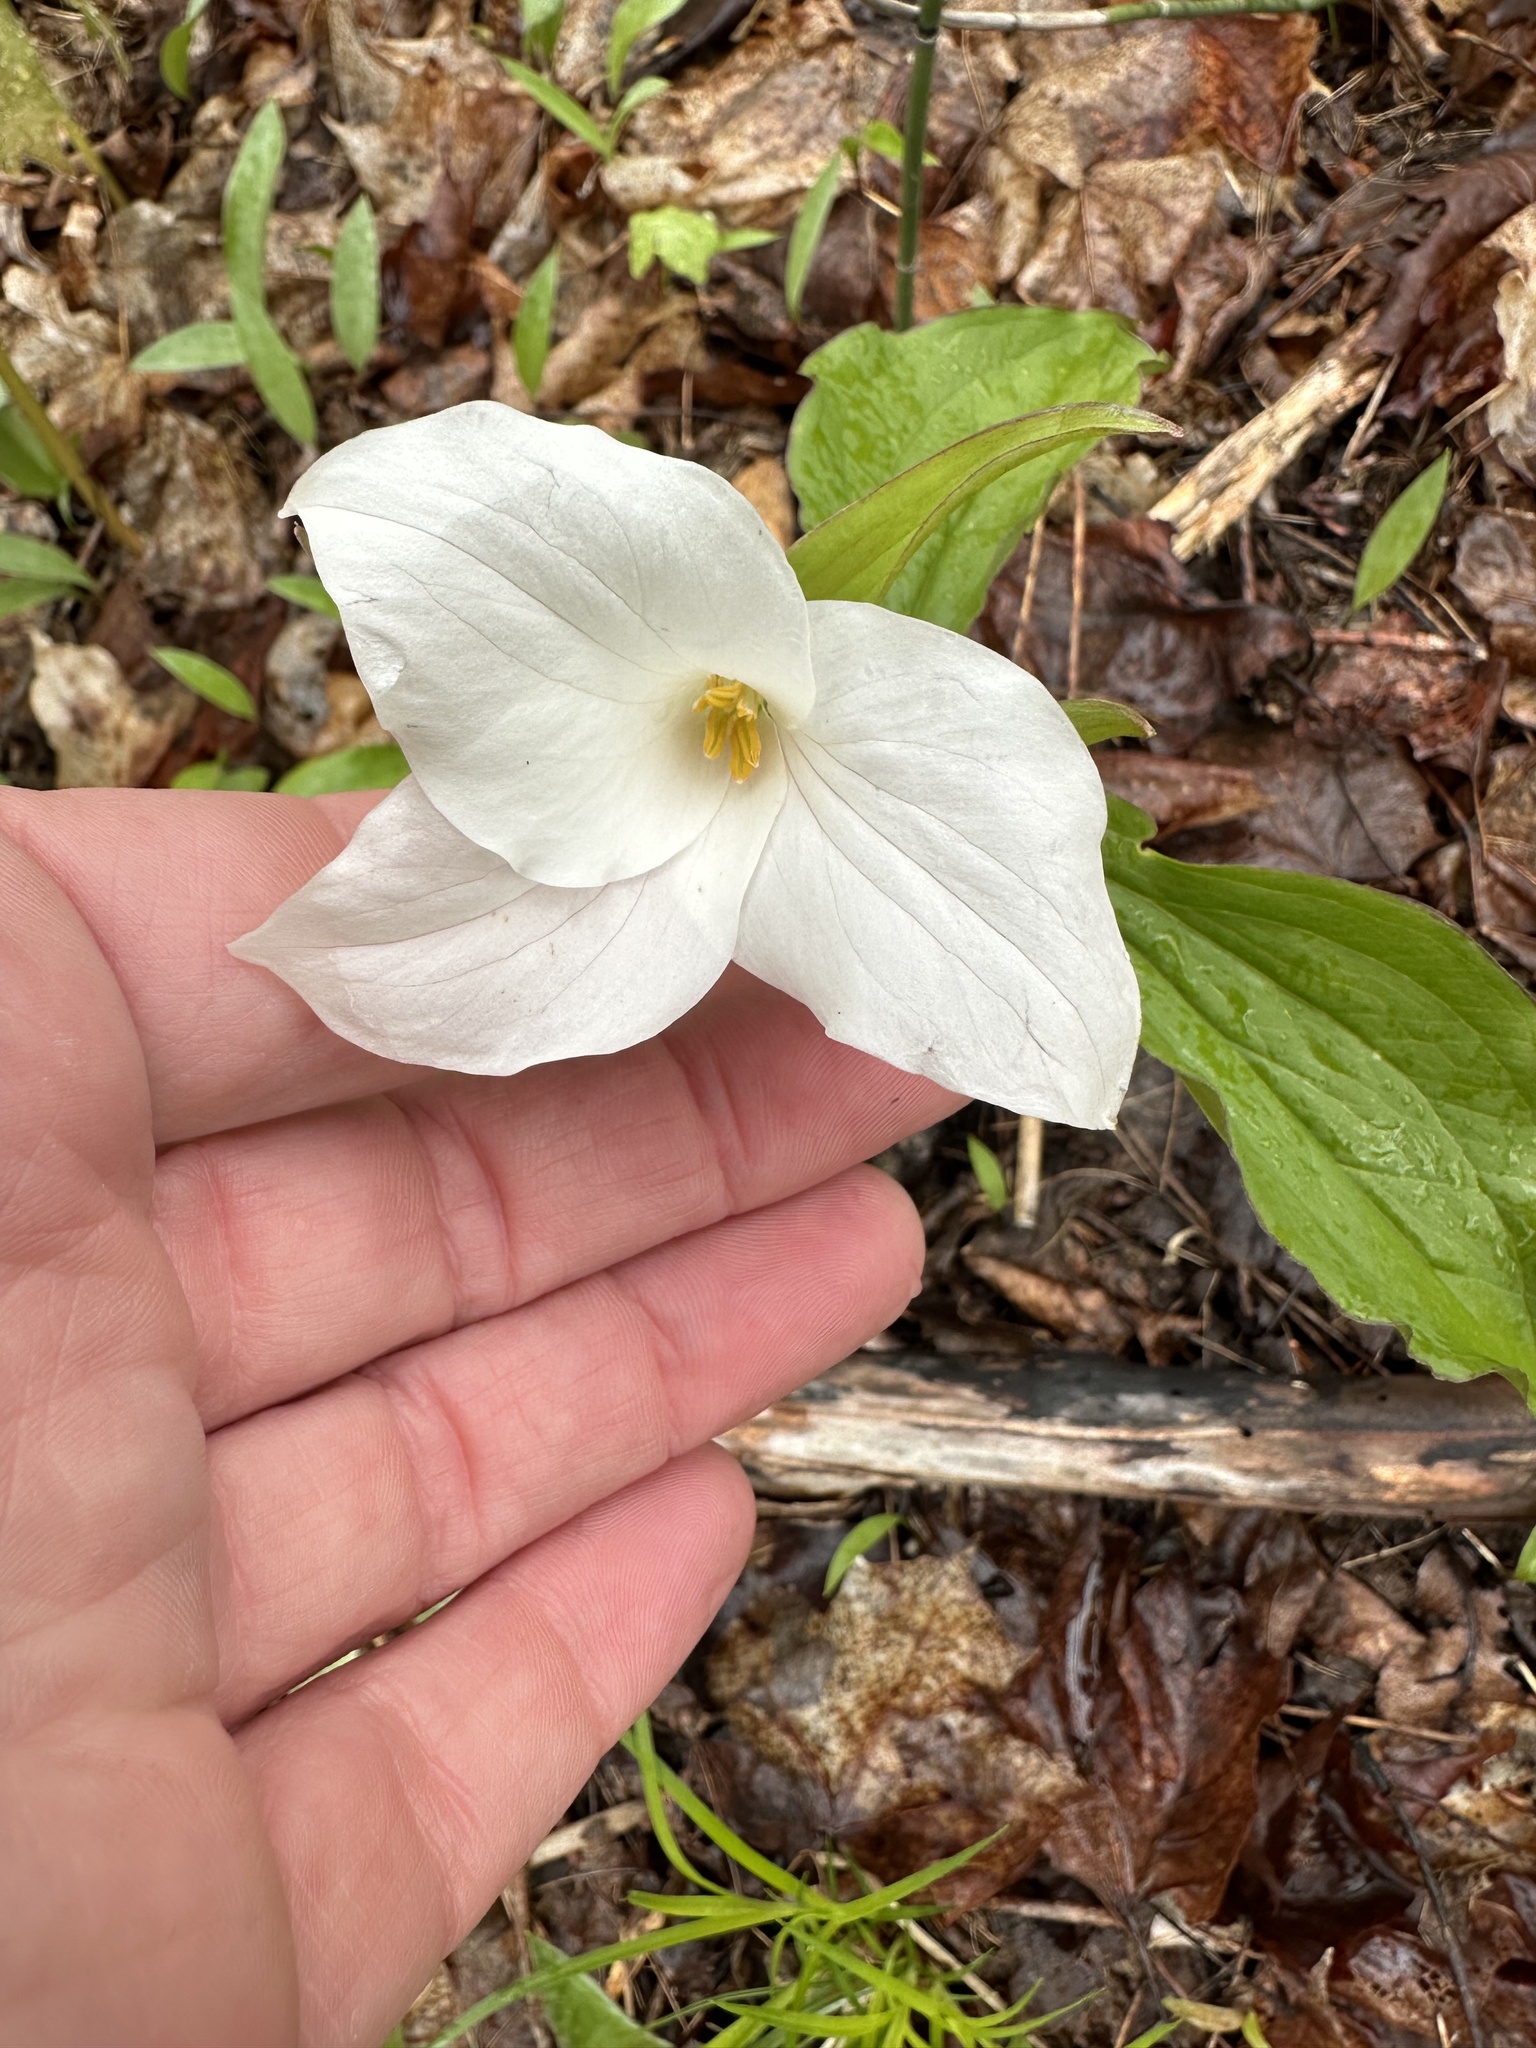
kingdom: Plantae
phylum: Tracheophyta
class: Liliopsida
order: Liliales
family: Melanthiaceae
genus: Trillium
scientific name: Trillium grandiflorum
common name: Great white trillium
